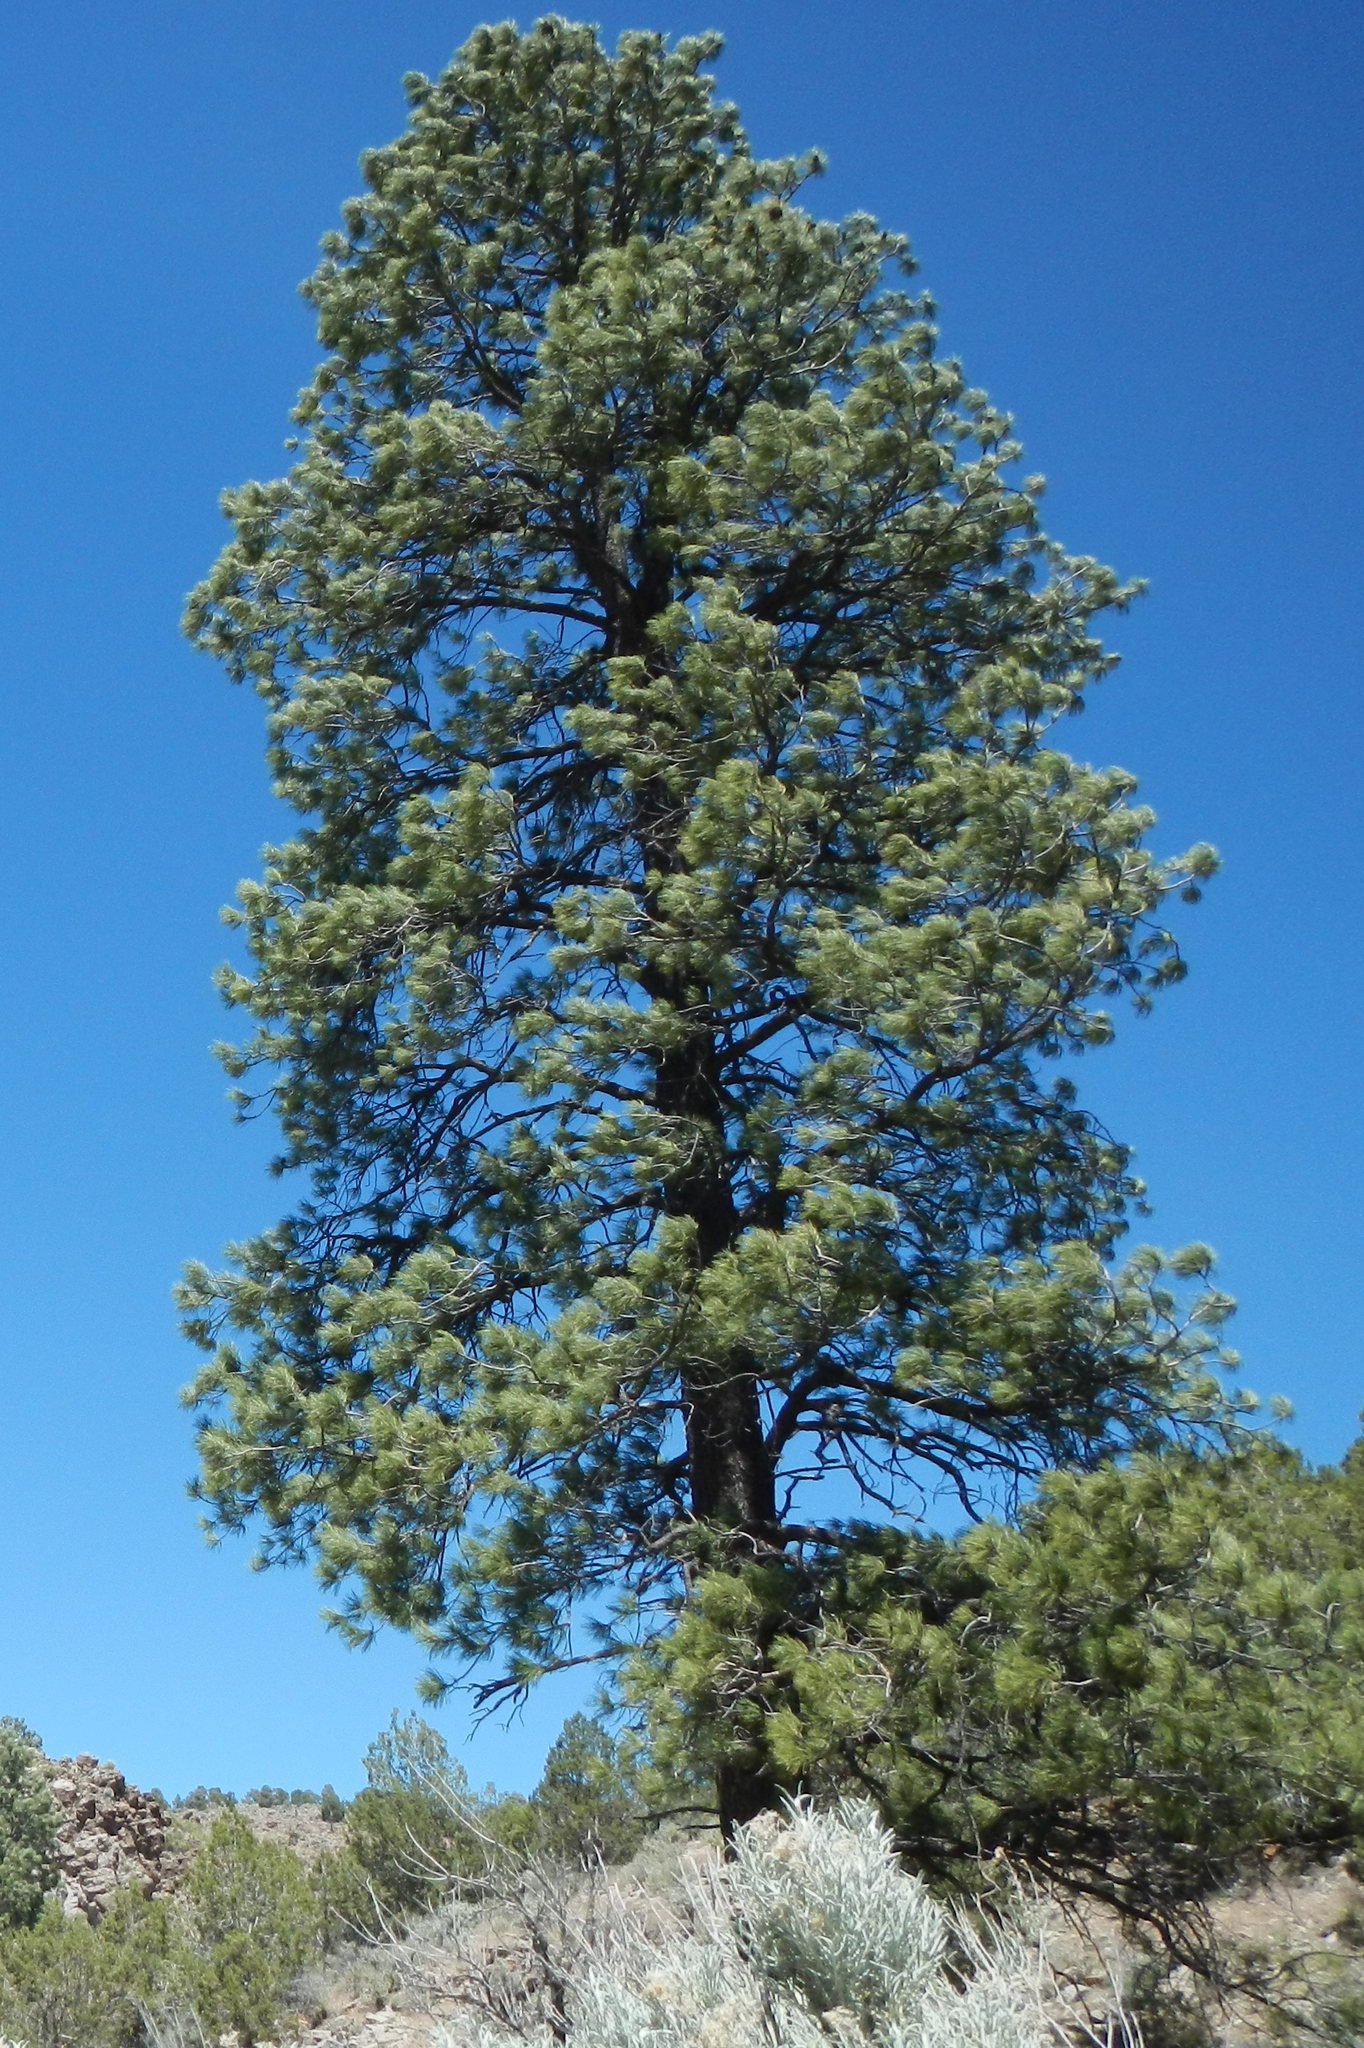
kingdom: Plantae
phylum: Tracheophyta
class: Pinopsida
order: Pinales
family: Pinaceae
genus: Pinus
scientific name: Pinus ponderosa
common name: Western yellow-pine
